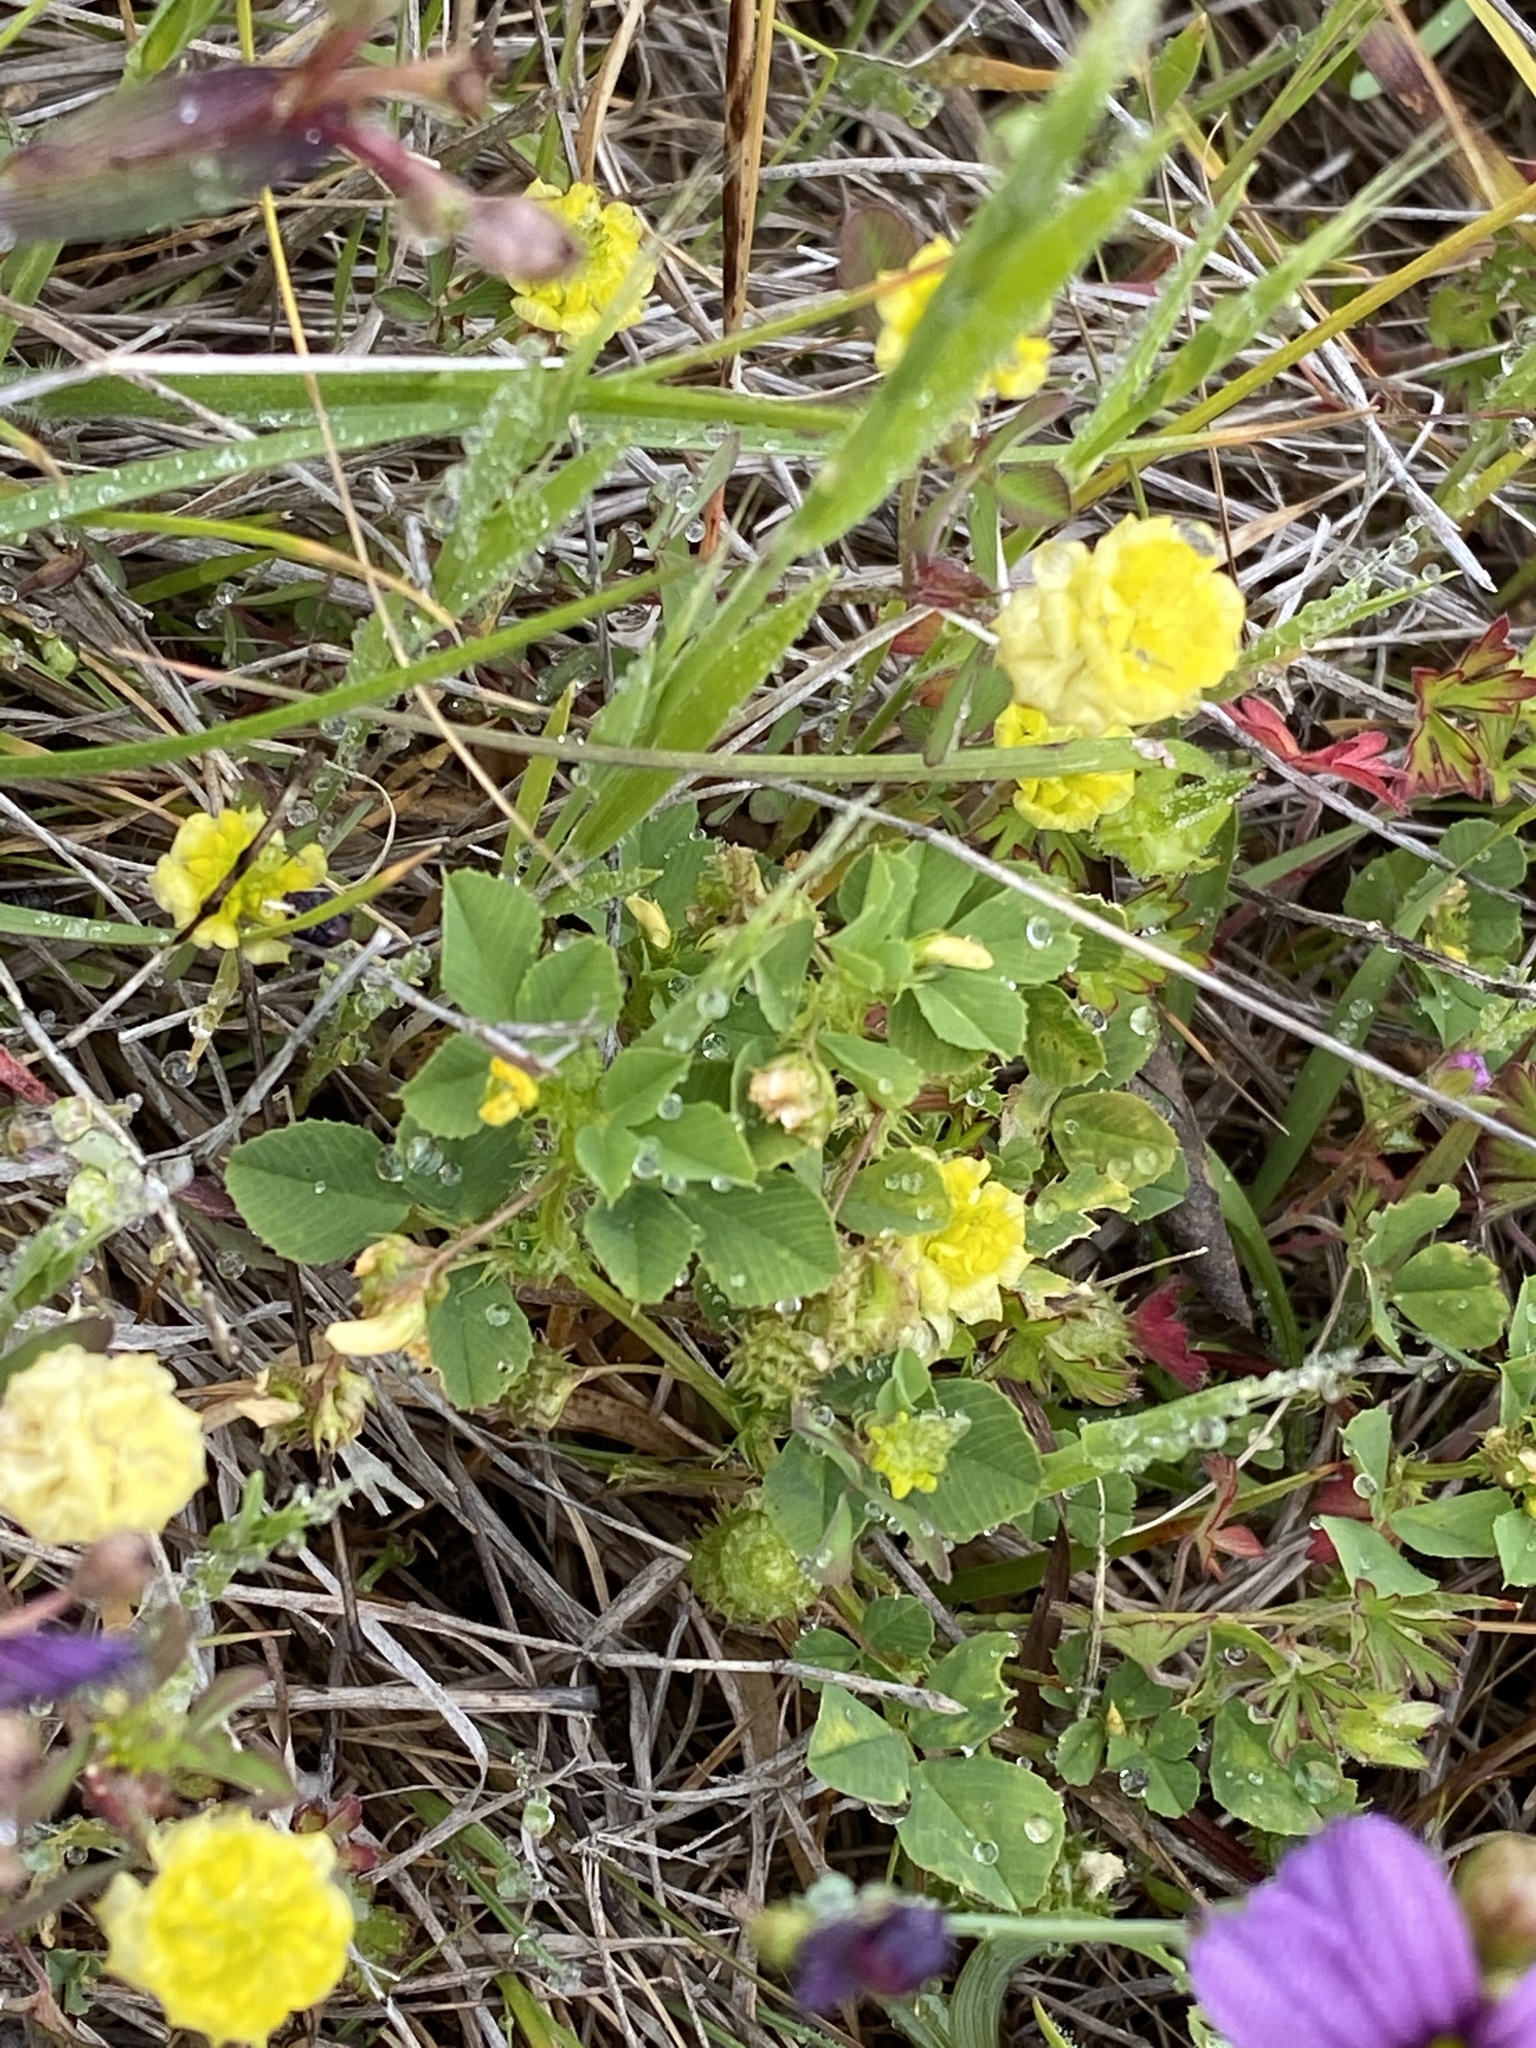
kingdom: Plantae
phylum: Tracheophyta
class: Magnoliopsida
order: Fabales
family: Fabaceae
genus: Trifolium
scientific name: Trifolium campestre
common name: Field clover
